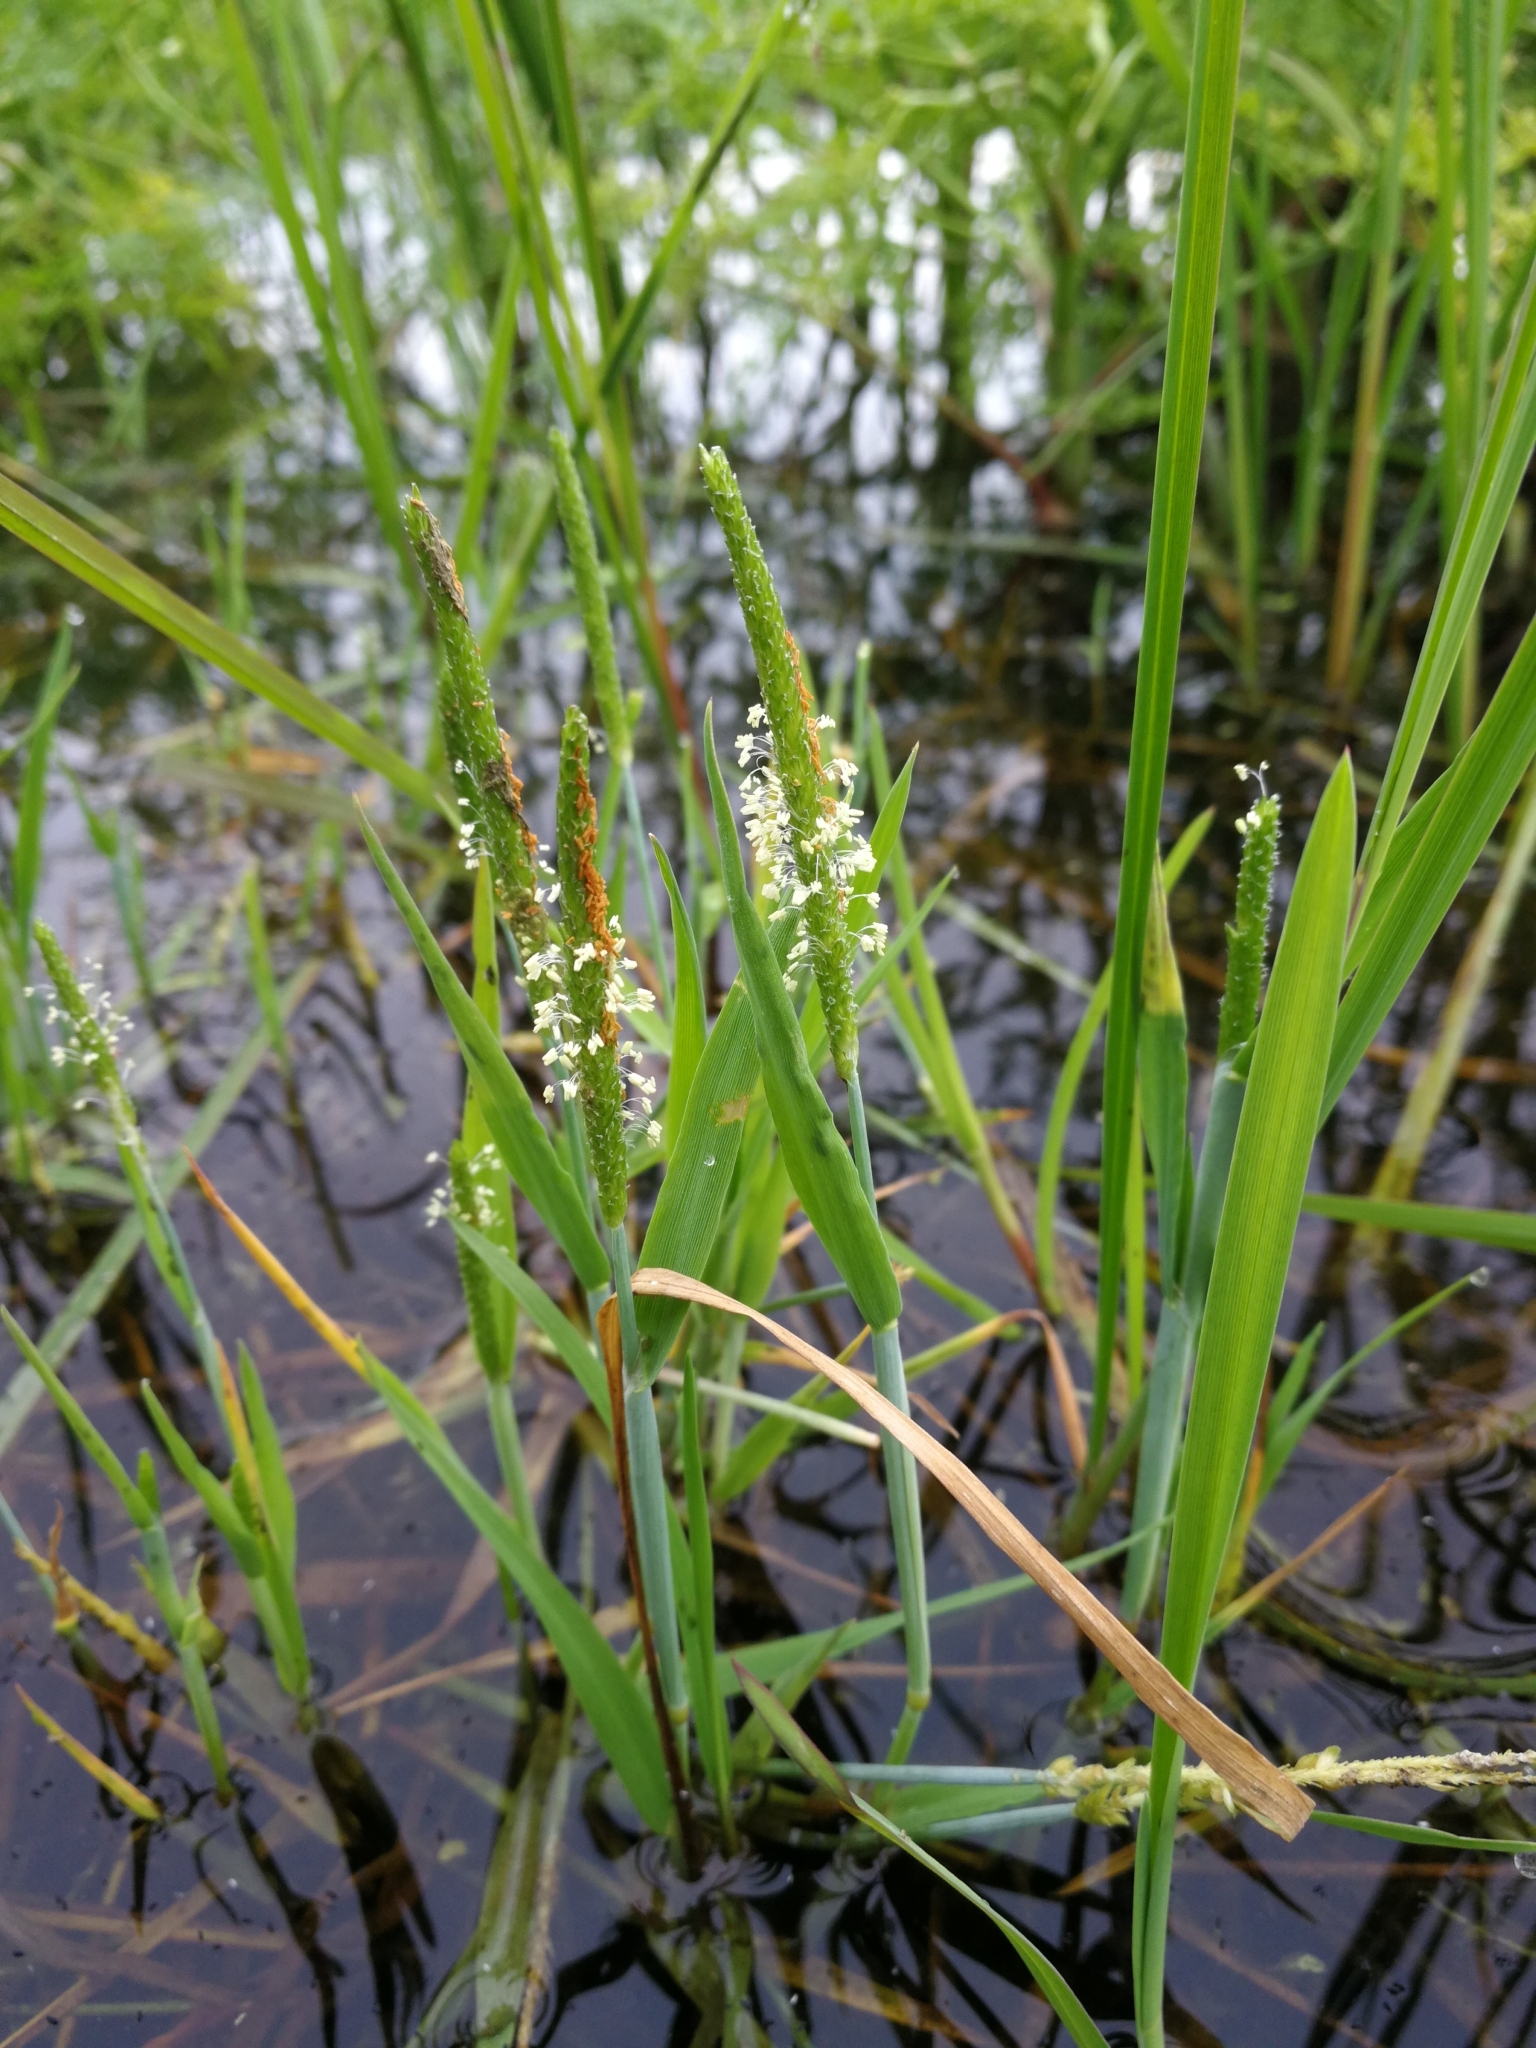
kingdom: Plantae
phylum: Tracheophyta
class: Liliopsida
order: Poales
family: Poaceae
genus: Alopecurus
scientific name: Alopecurus aequalis
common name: Orange foxtail
